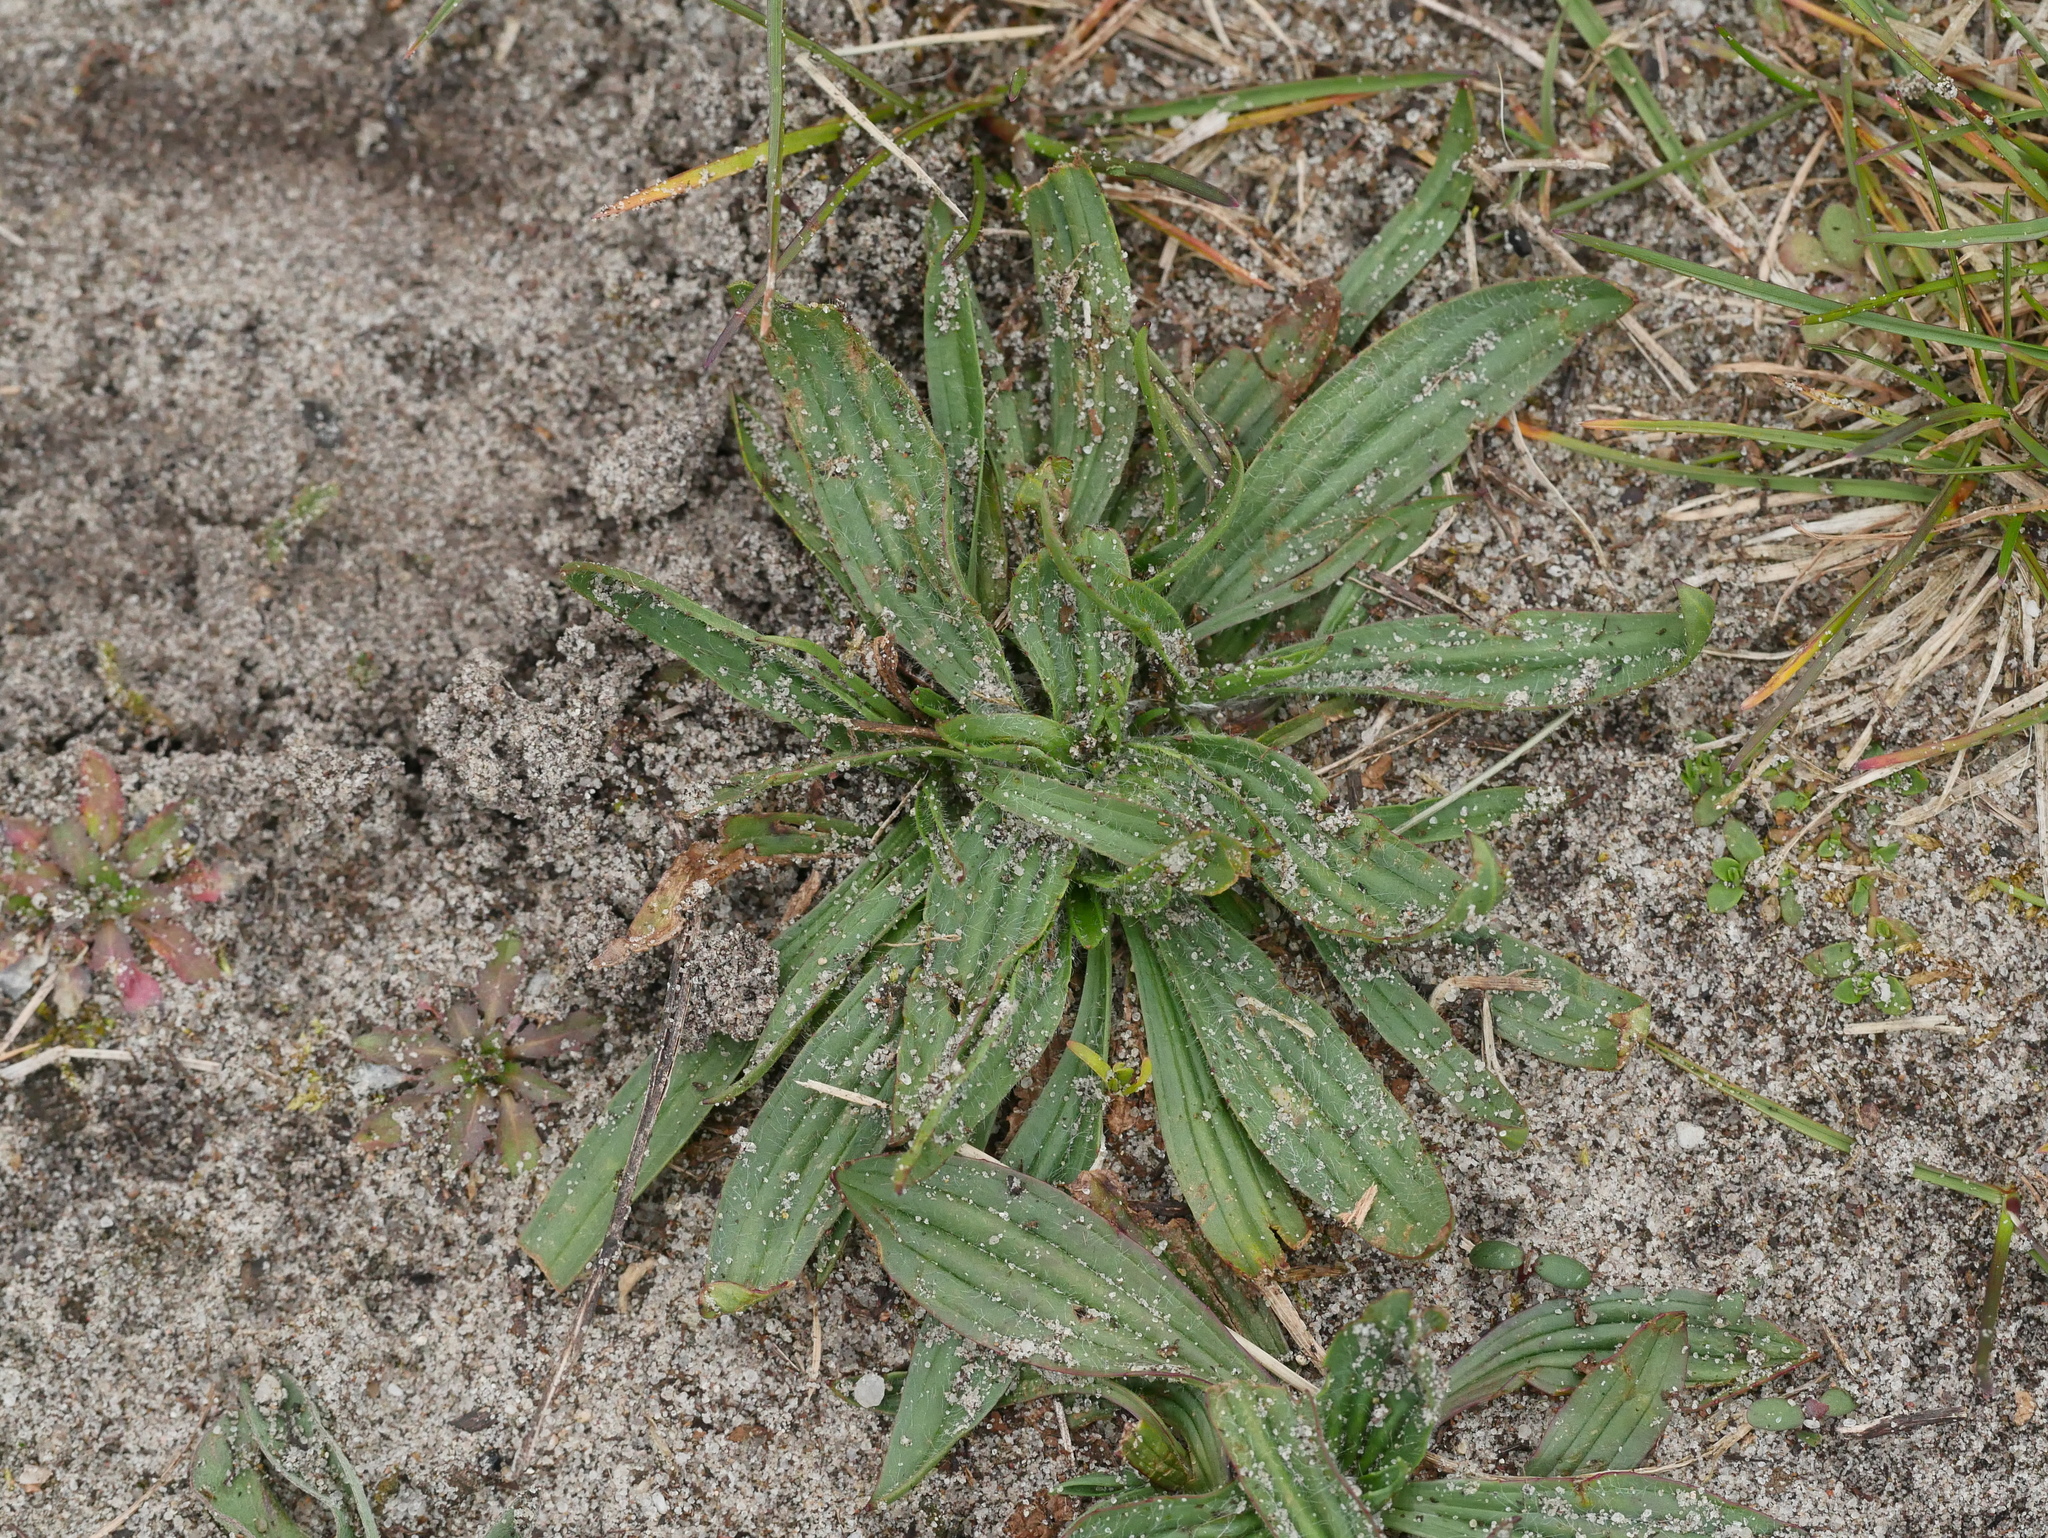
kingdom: Plantae
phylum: Tracheophyta
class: Magnoliopsida
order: Lamiales
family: Plantaginaceae
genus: Plantago
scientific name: Plantago lanceolata
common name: Ribwort plantain
